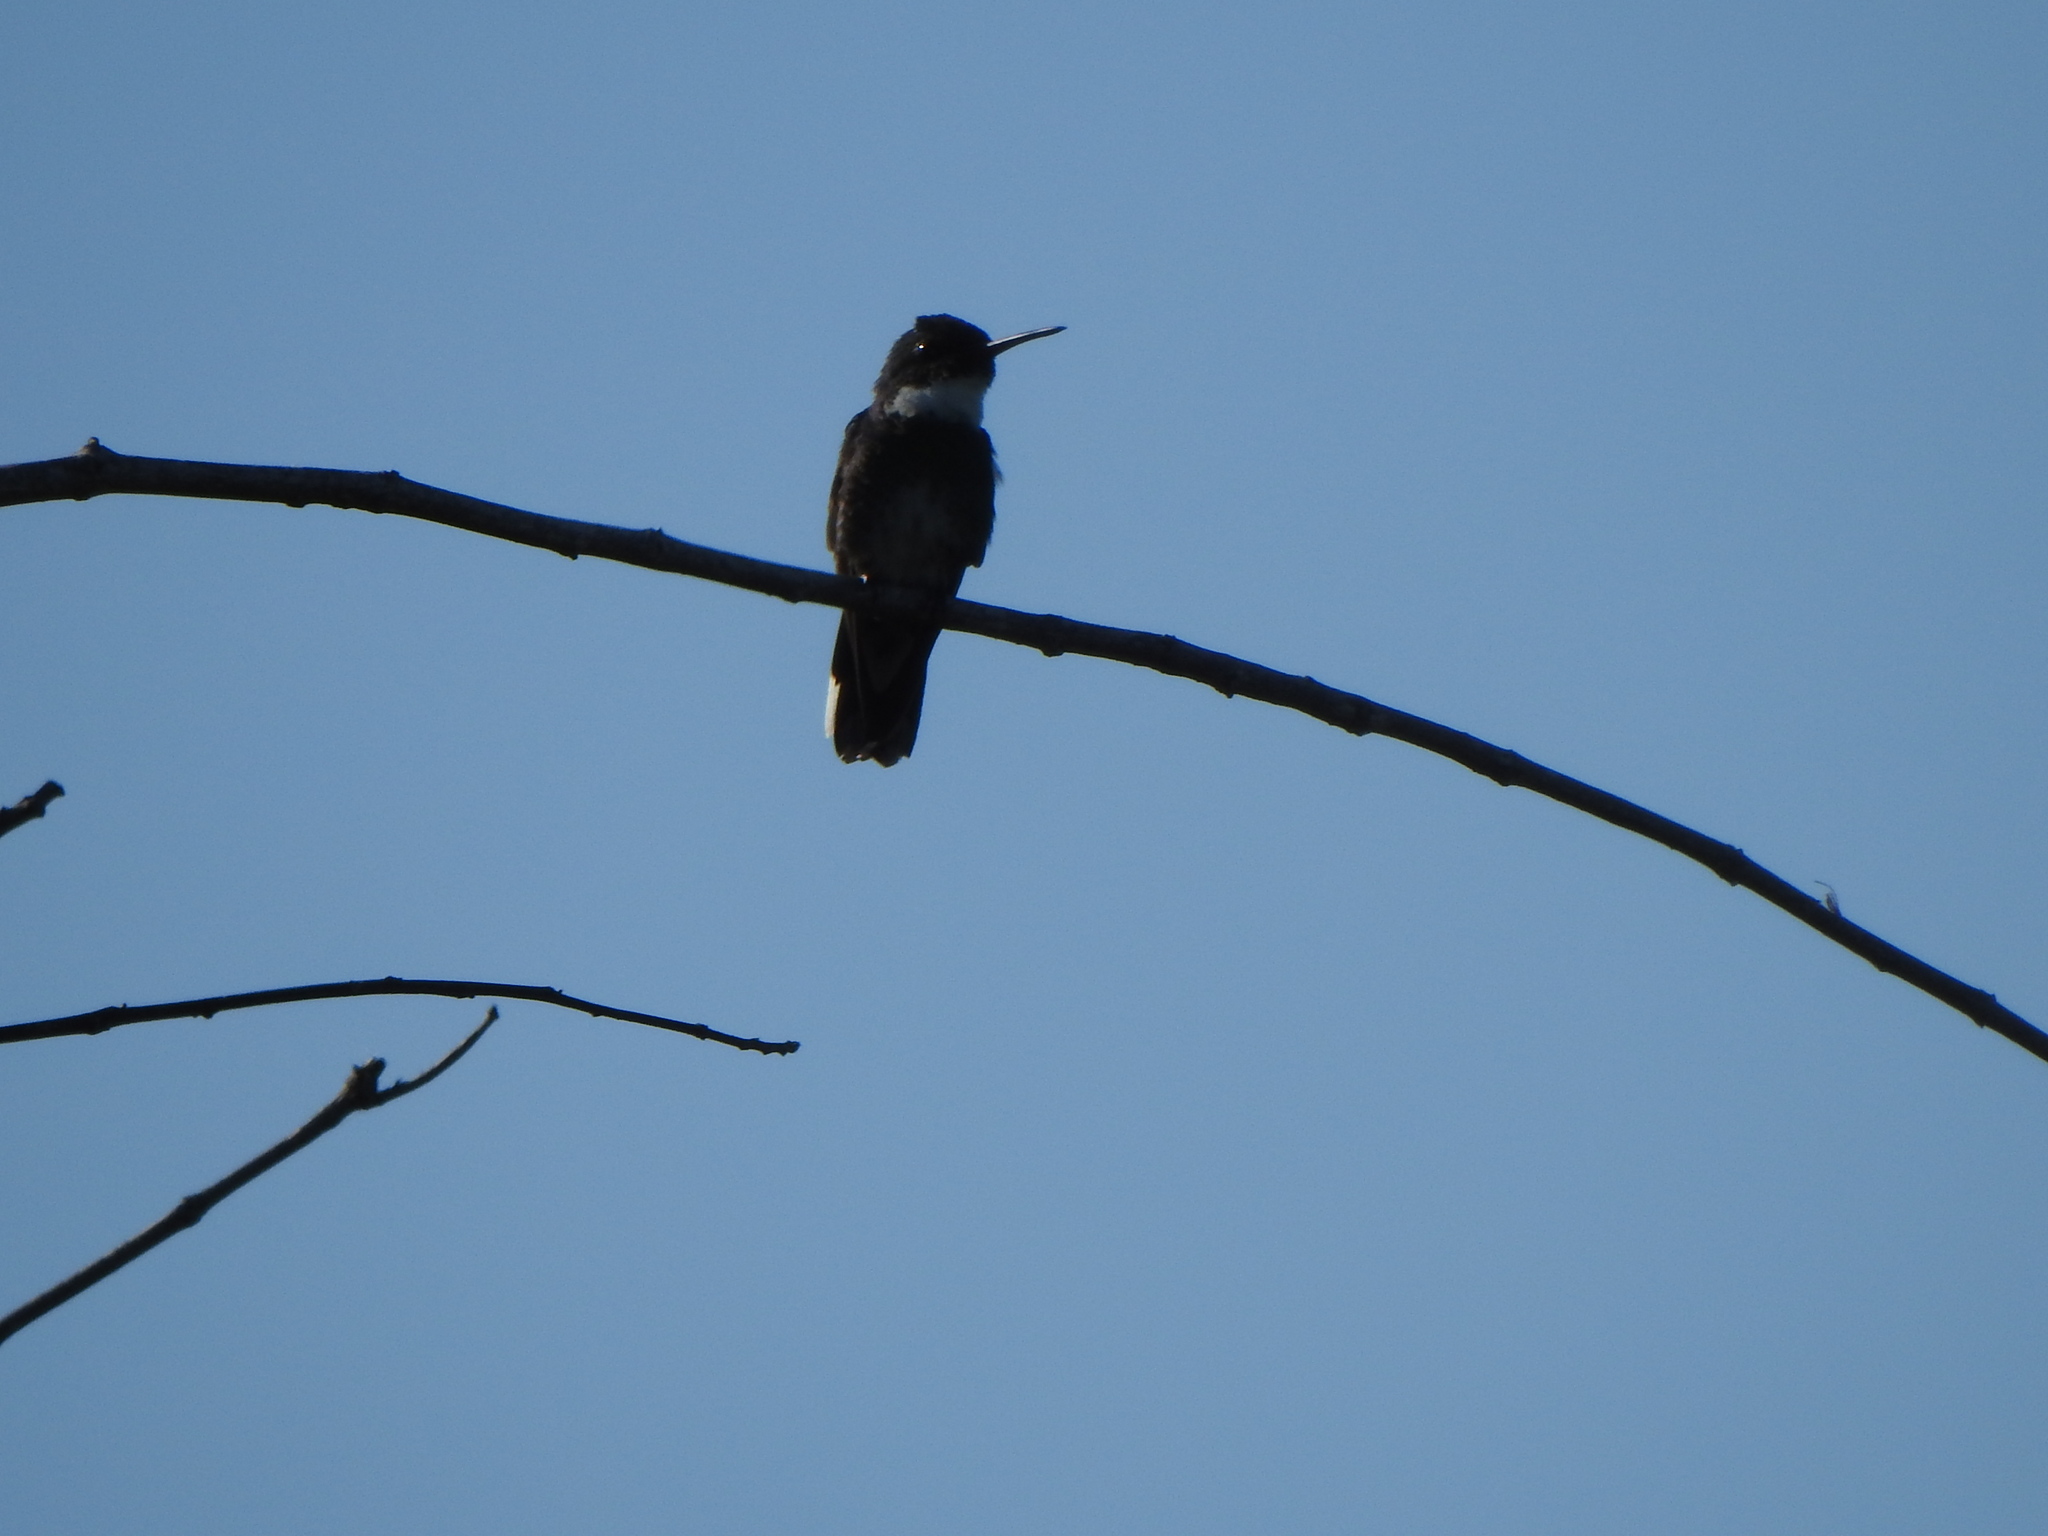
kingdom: Animalia
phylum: Chordata
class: Aves
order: Apodiformes
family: Trochilidae
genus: Leucochloris
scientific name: Leucochloris albicollis
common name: White-throated hummingbird
